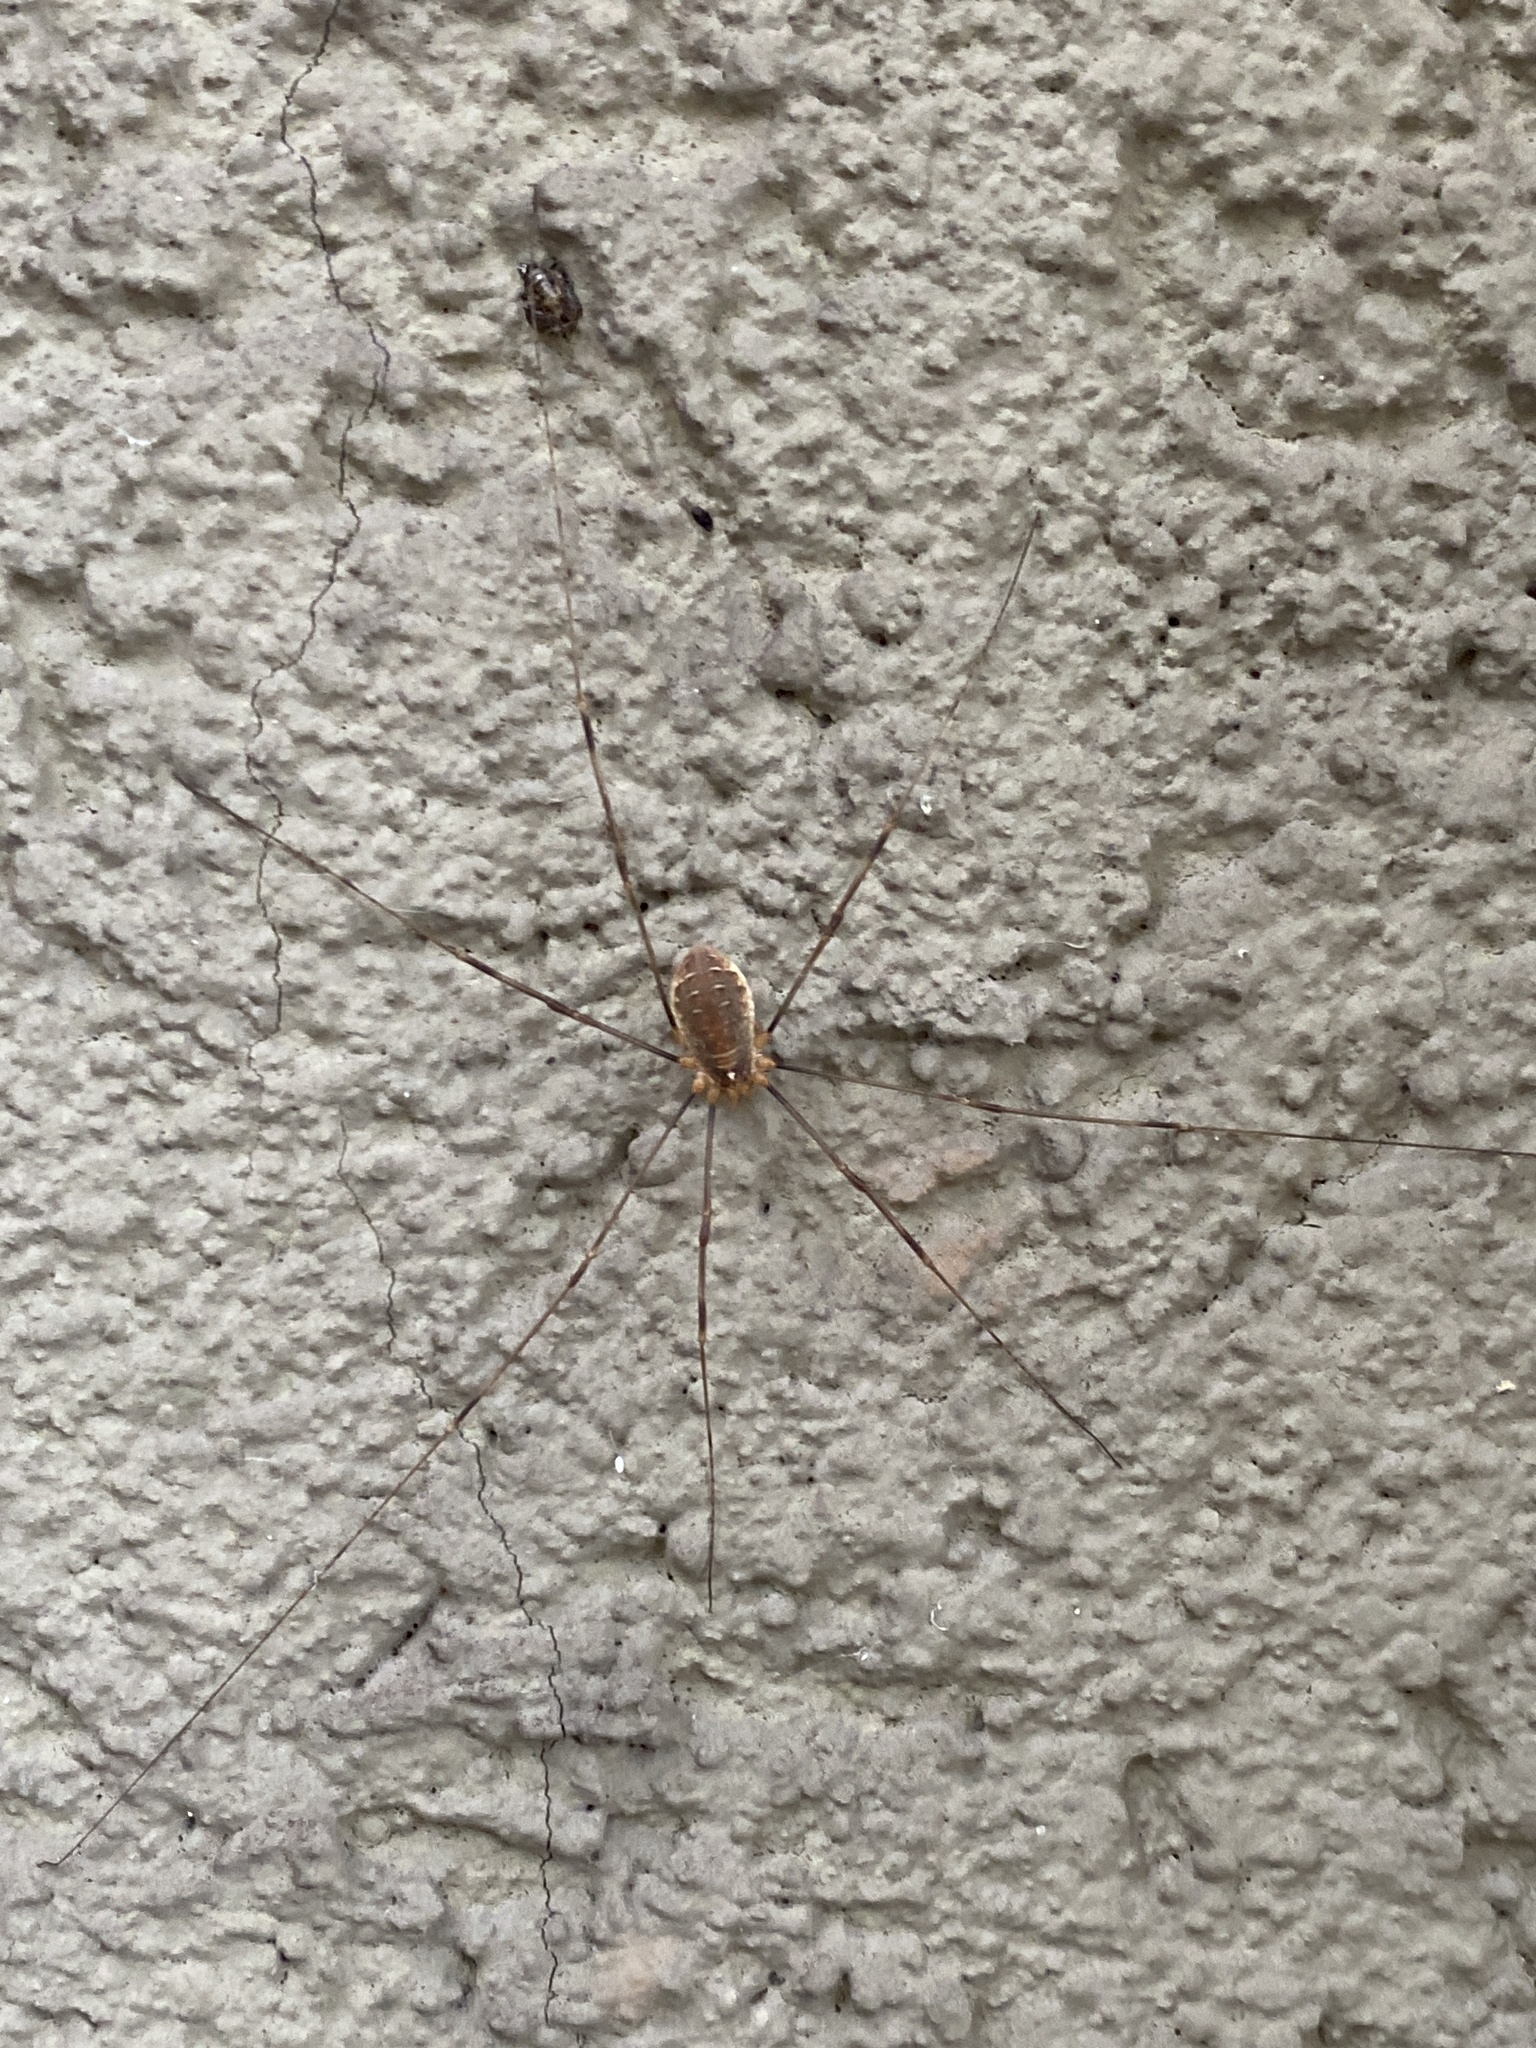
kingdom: Animalia
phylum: Arthropoda
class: Arachnida
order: Opiliones
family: Phalangiidae
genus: Opilio
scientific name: Opilio canestrinii
